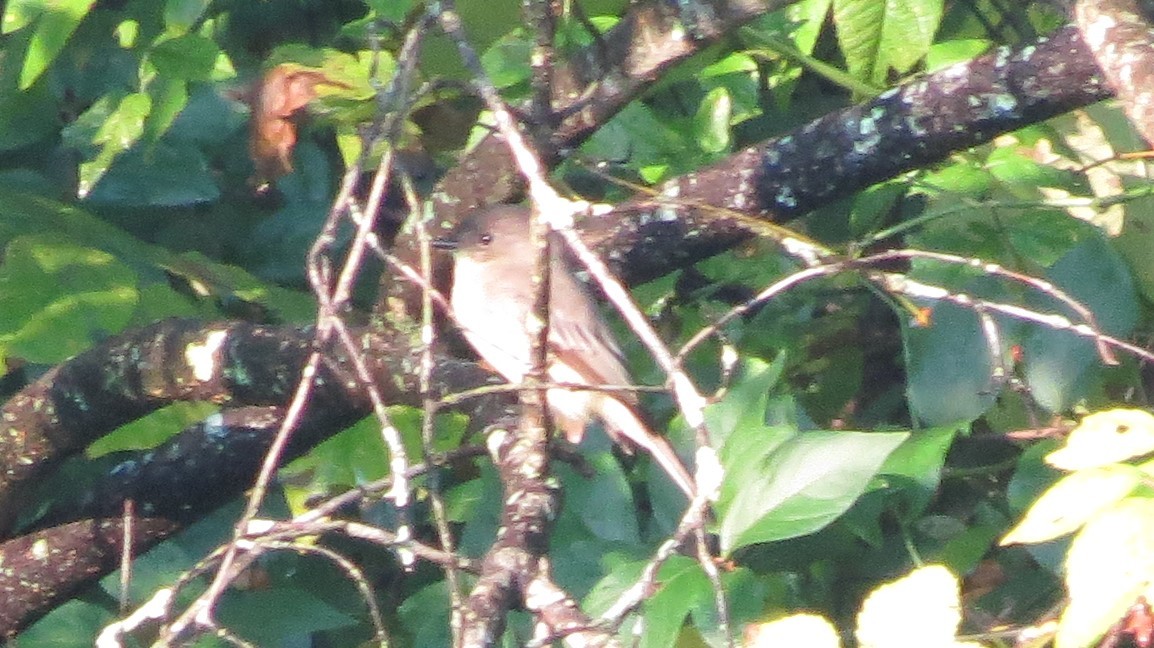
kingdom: Animalia
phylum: Chordata
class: Aves
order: Passeriformes
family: Tyrannidae
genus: Sayornis
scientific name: Sayornis phoebe
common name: Eastern phoebe
